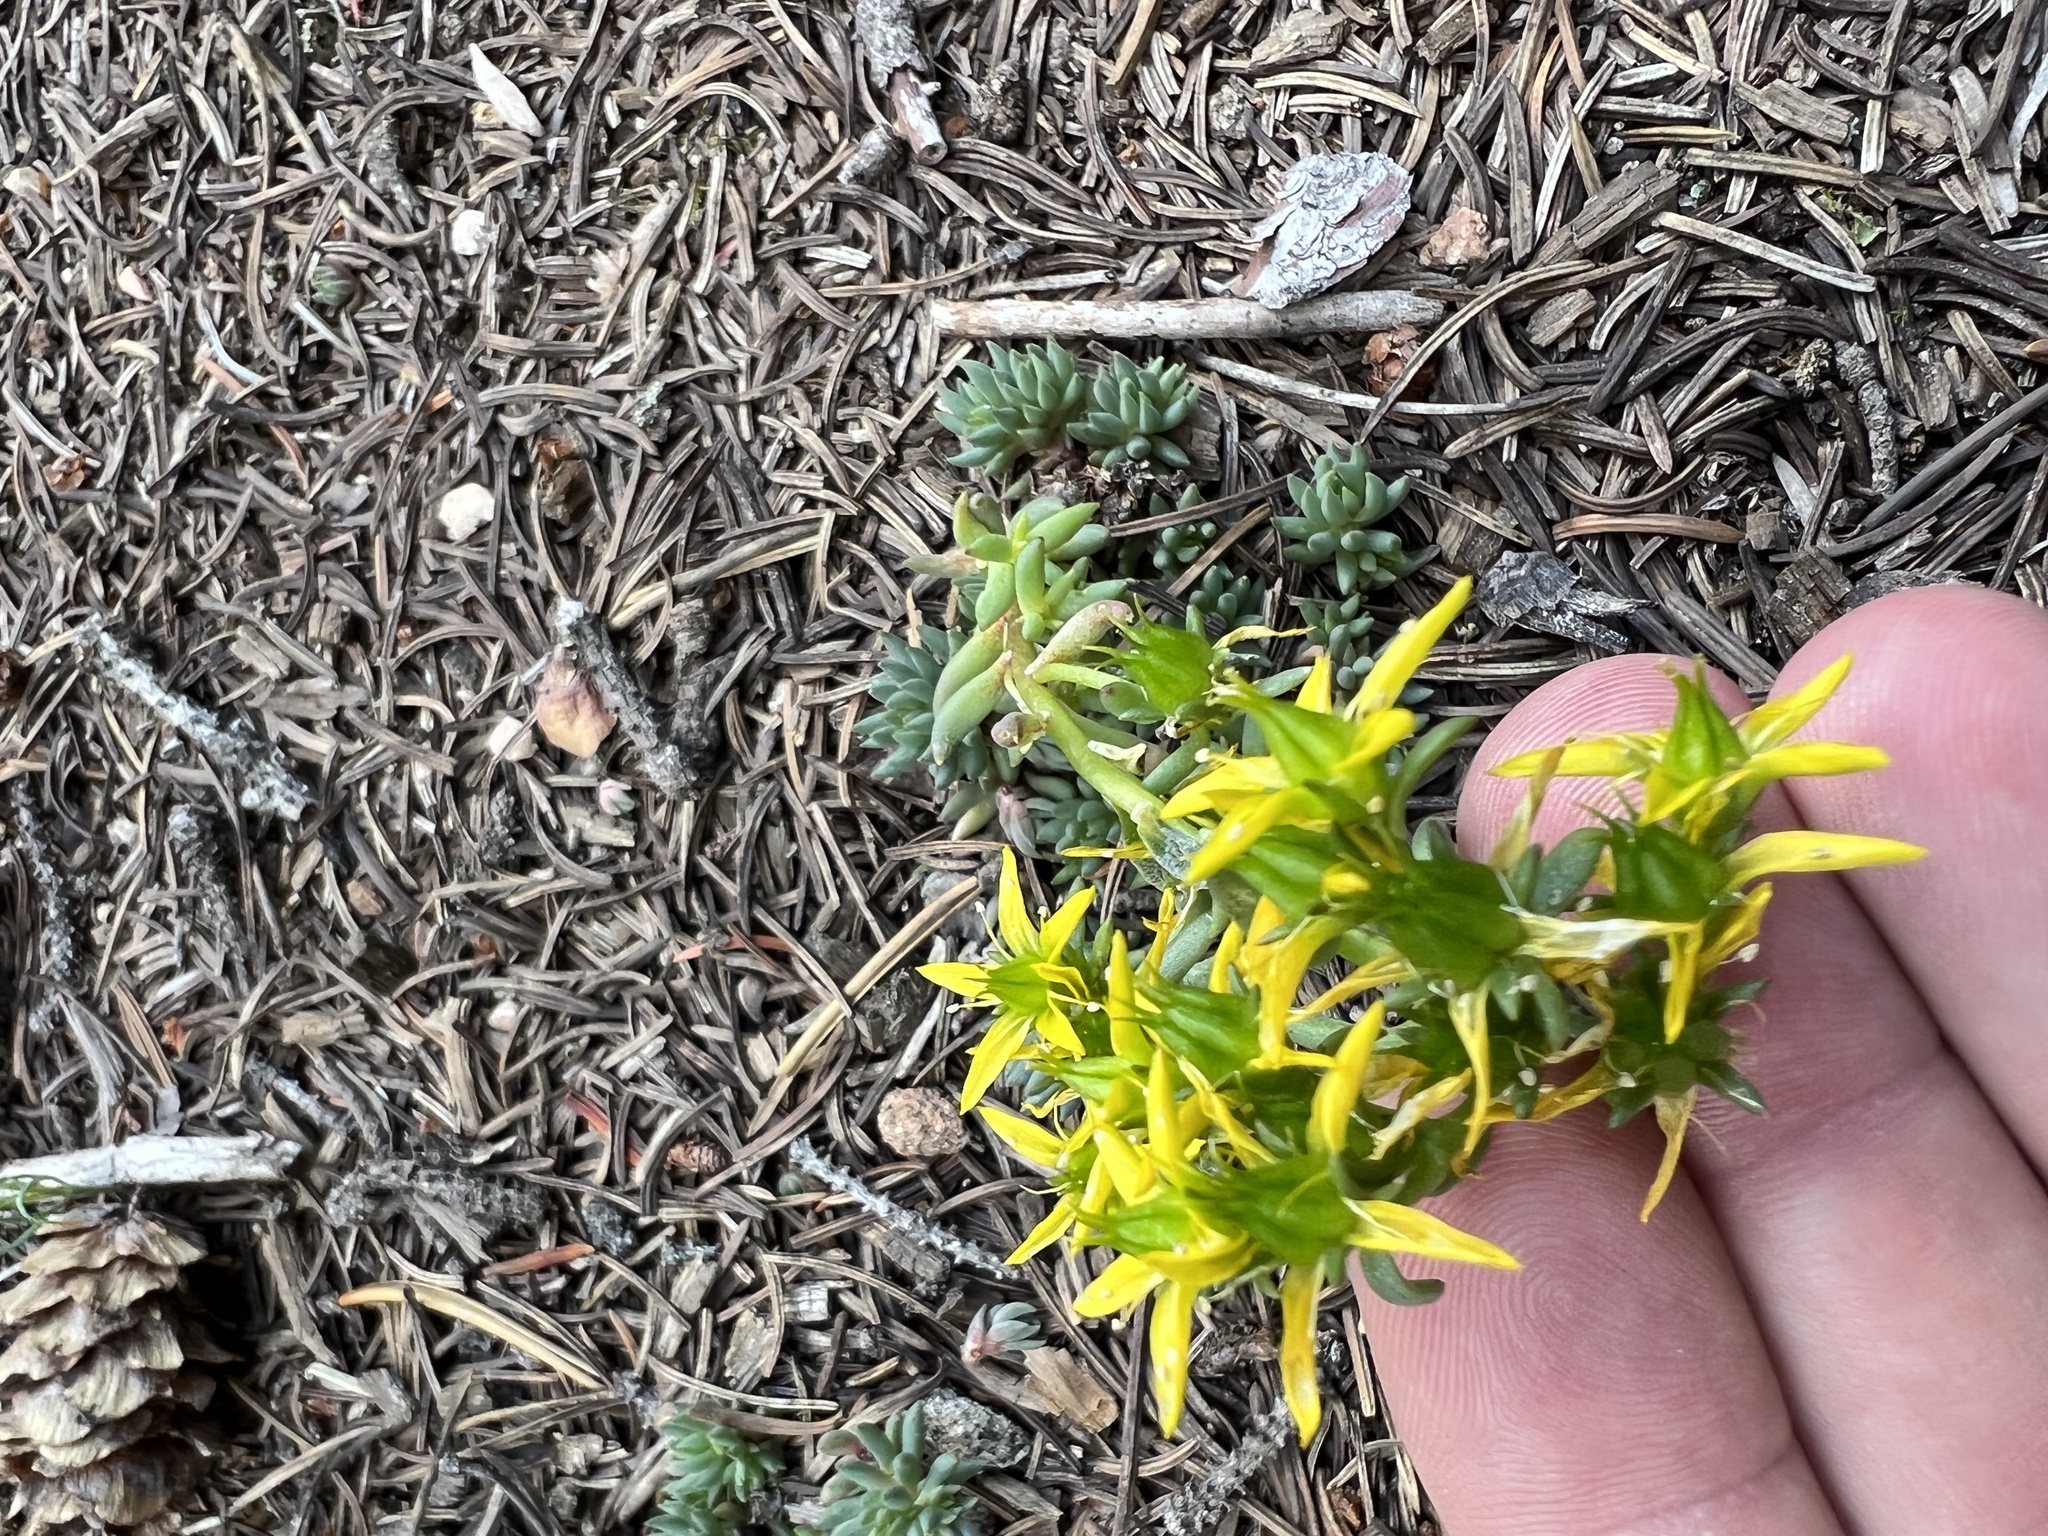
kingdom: Plantae
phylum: Tracheophyta
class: Magnoliopsida
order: Saxifragales
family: Crassulaceae
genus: Sedum
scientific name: Sedum lanceolatum
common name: Common stonecrop
